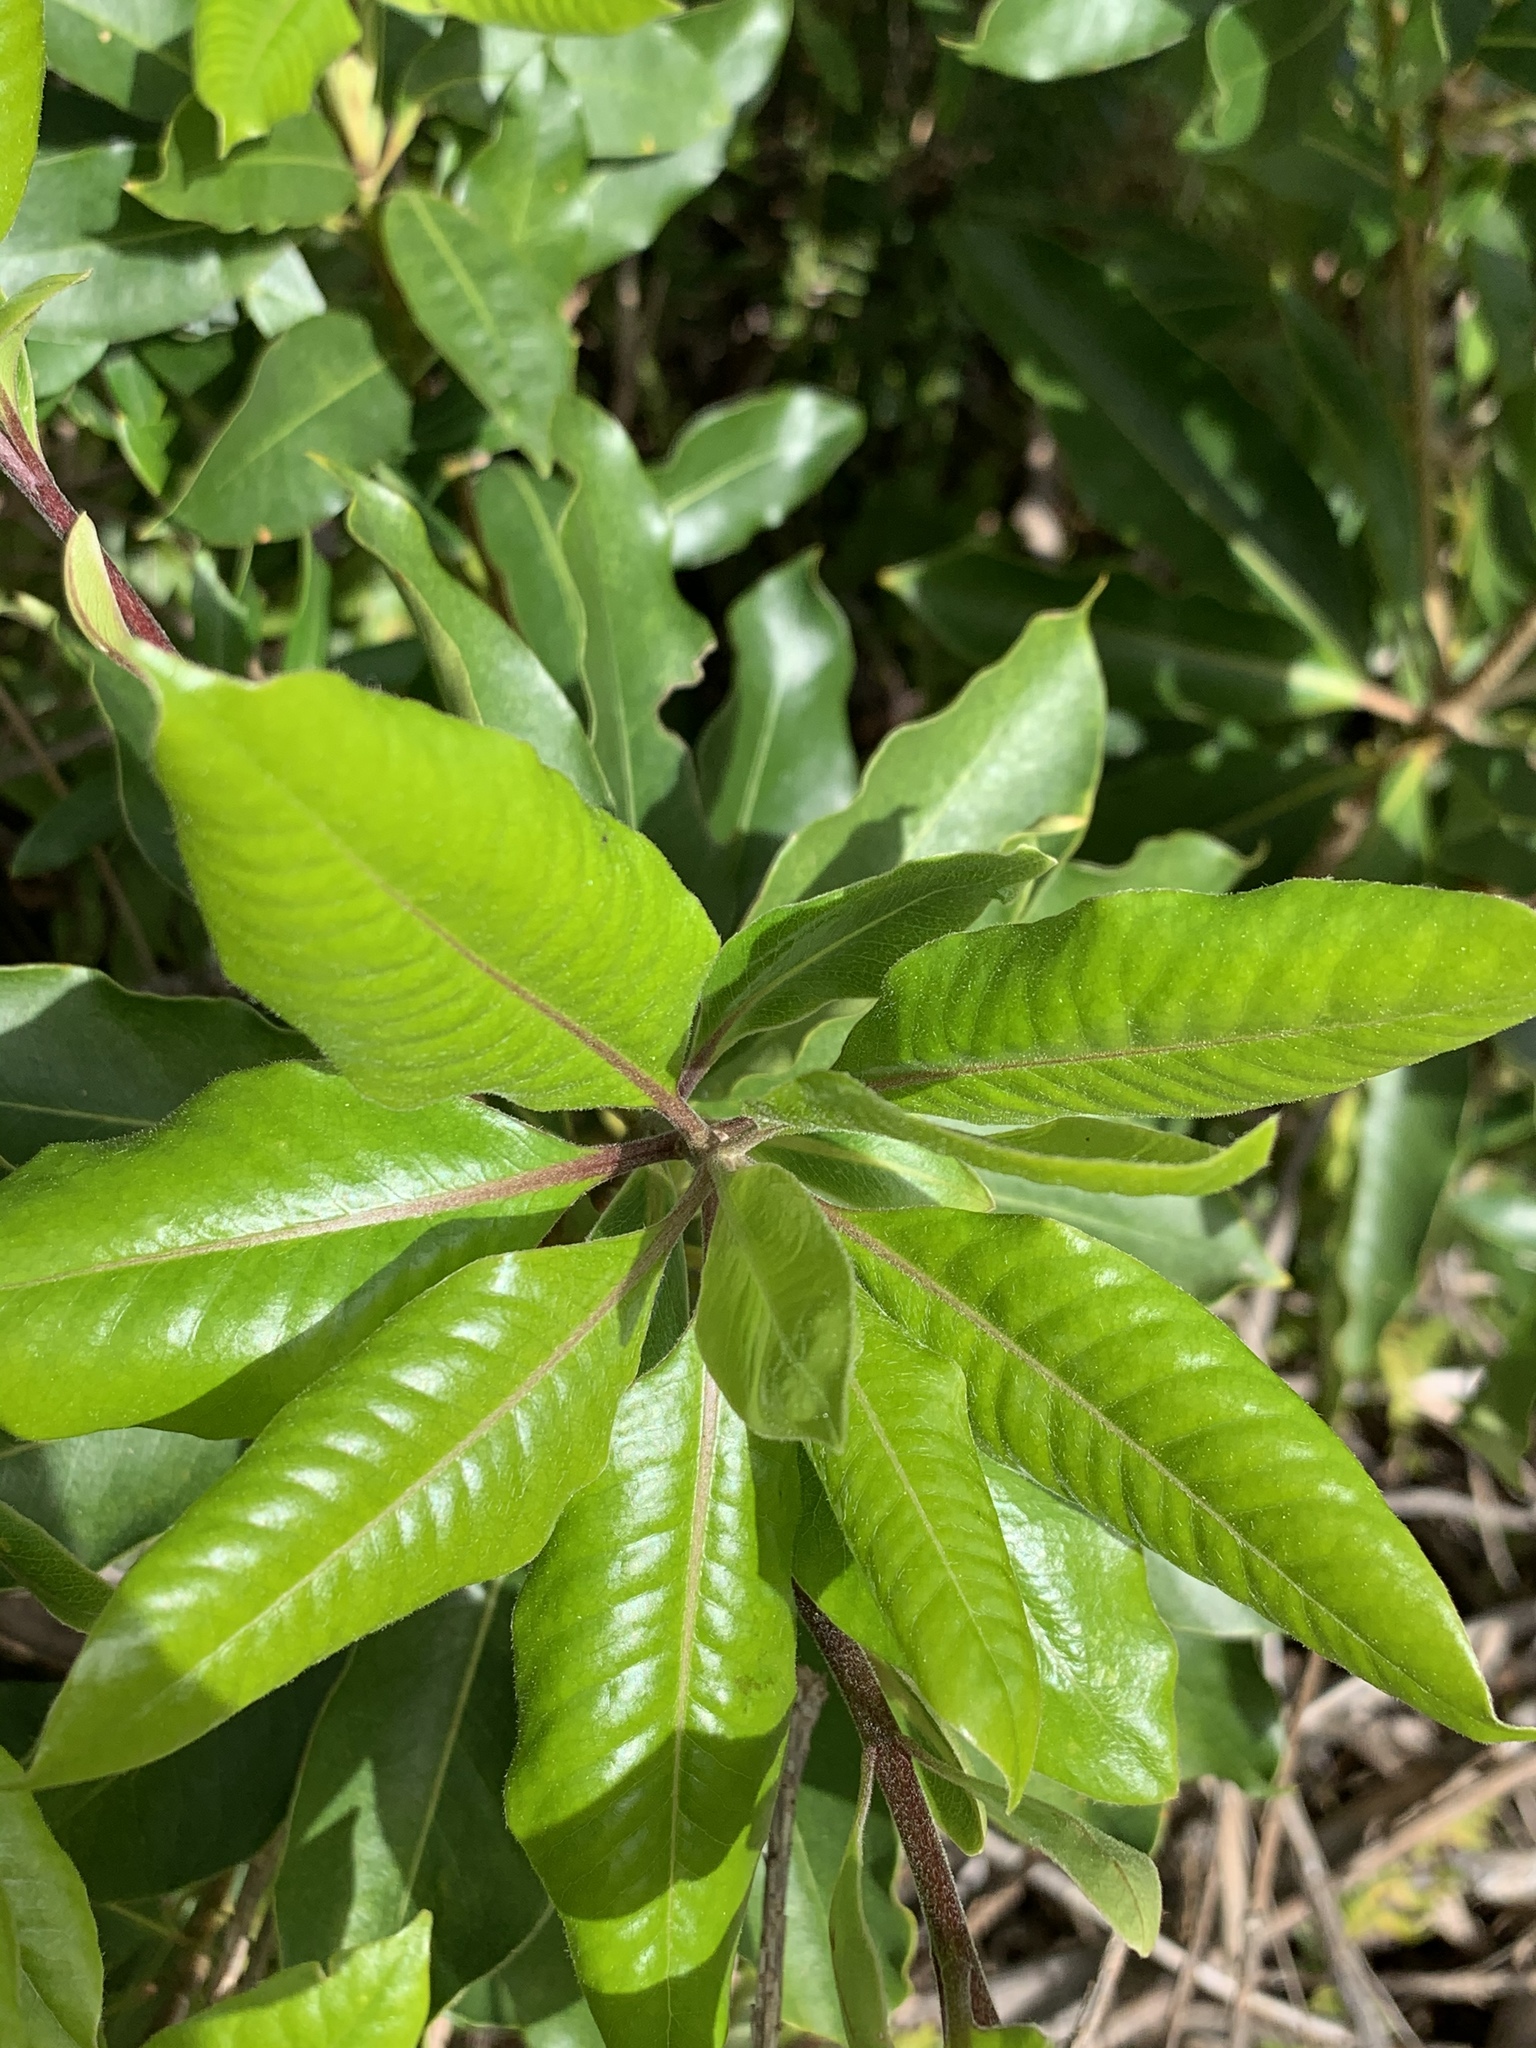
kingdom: Plantae
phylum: Tracheophyta
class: Magnoliopsida
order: Apiales
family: Pittosporaceae
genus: Pittosporum
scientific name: Pittosporum undulatum
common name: Australian cheesewood
